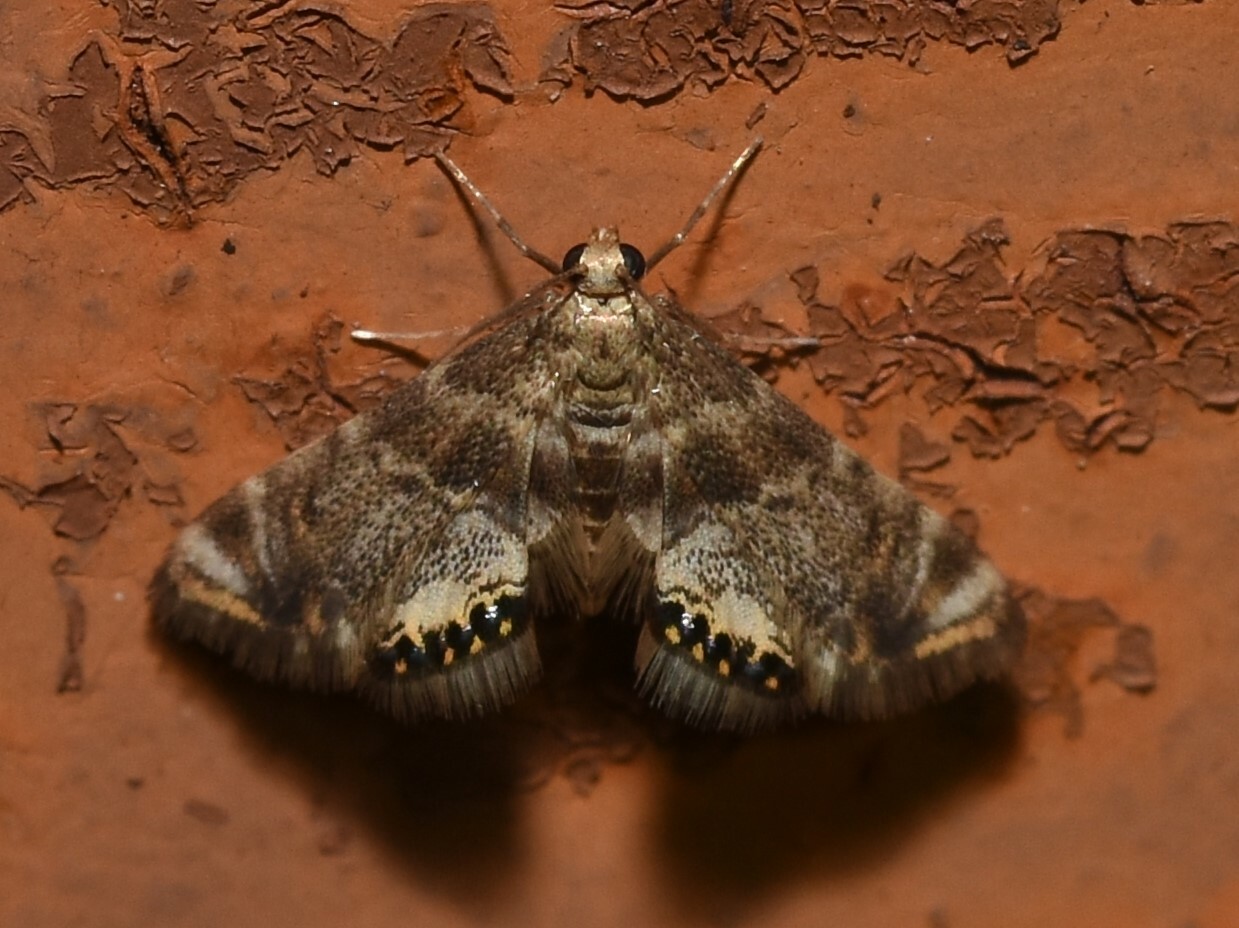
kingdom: Animalia
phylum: Arthropoda
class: Insecta
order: Lepidoptera
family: Crambidae
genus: Petrophila
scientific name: Petrophila fulicalis
